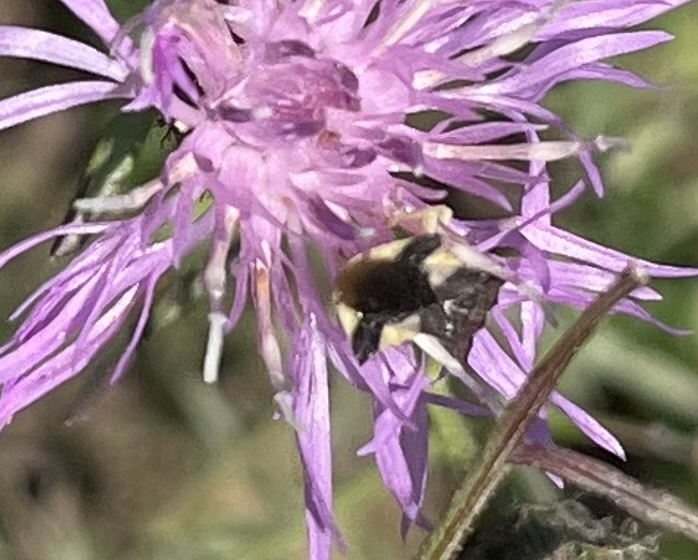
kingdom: Animalia
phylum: Arthropoda
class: Insecta
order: Hemiptera
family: Reduviidae
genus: Phymata
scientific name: Phymata americana
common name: Jagged ambush bug
